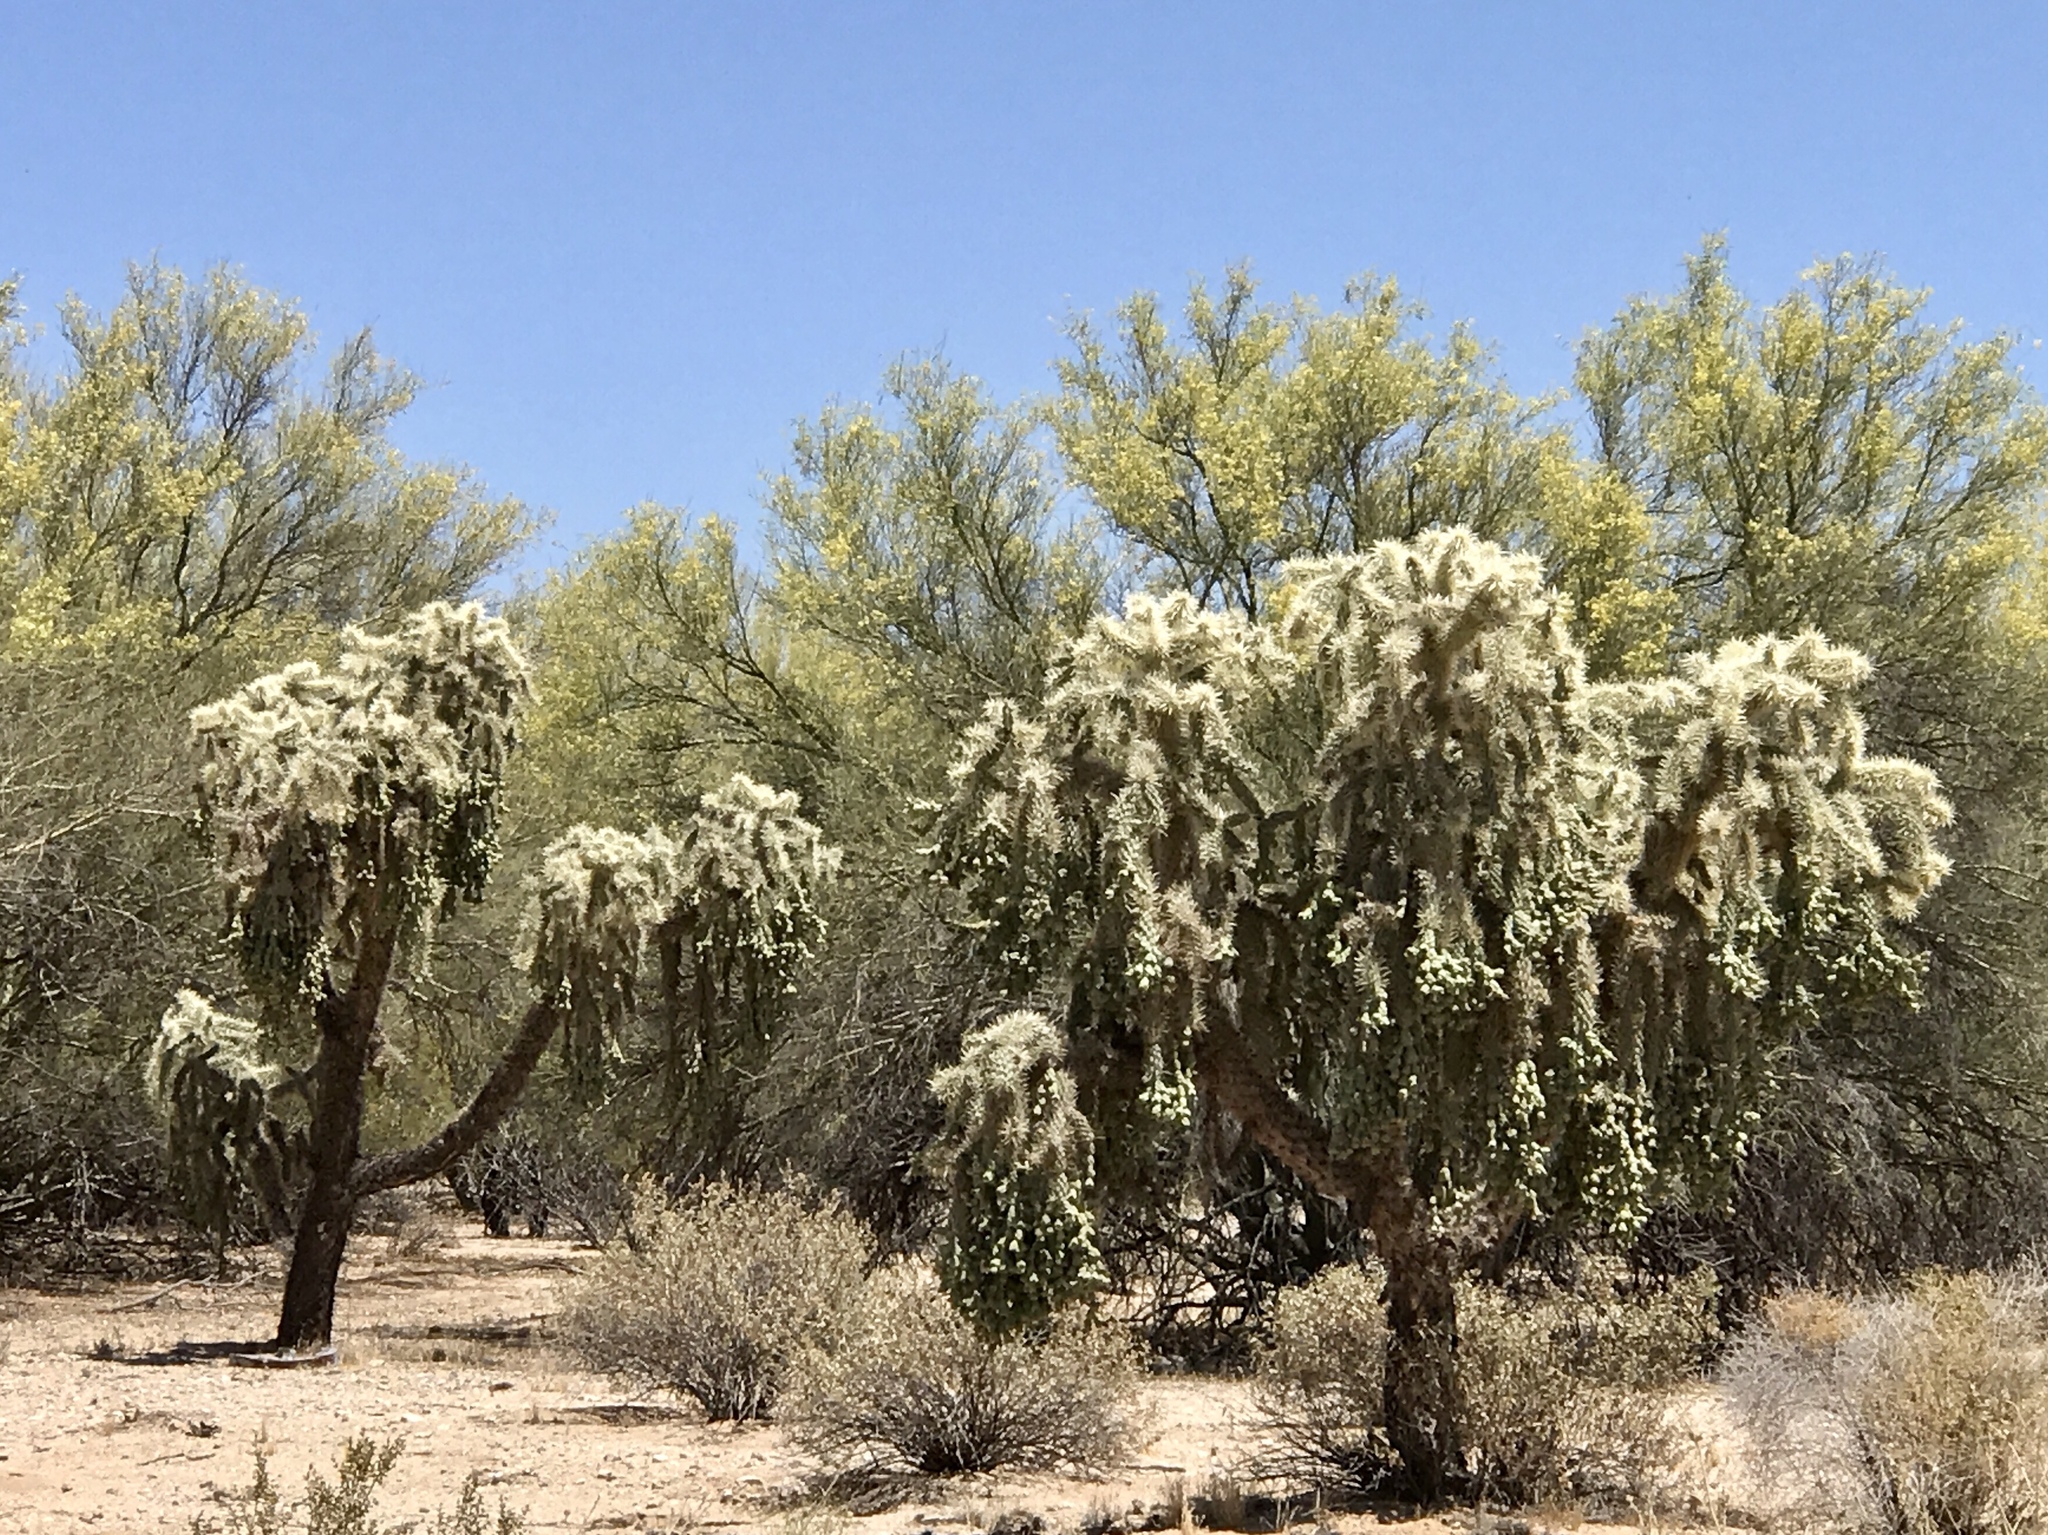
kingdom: Plantae
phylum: Tracheophyta
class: Magnoliopsida
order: Caryophyllales
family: Cactaceae
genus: Cylindropuntia
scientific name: Cylindropuntia fulgida
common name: Jumping cholla
